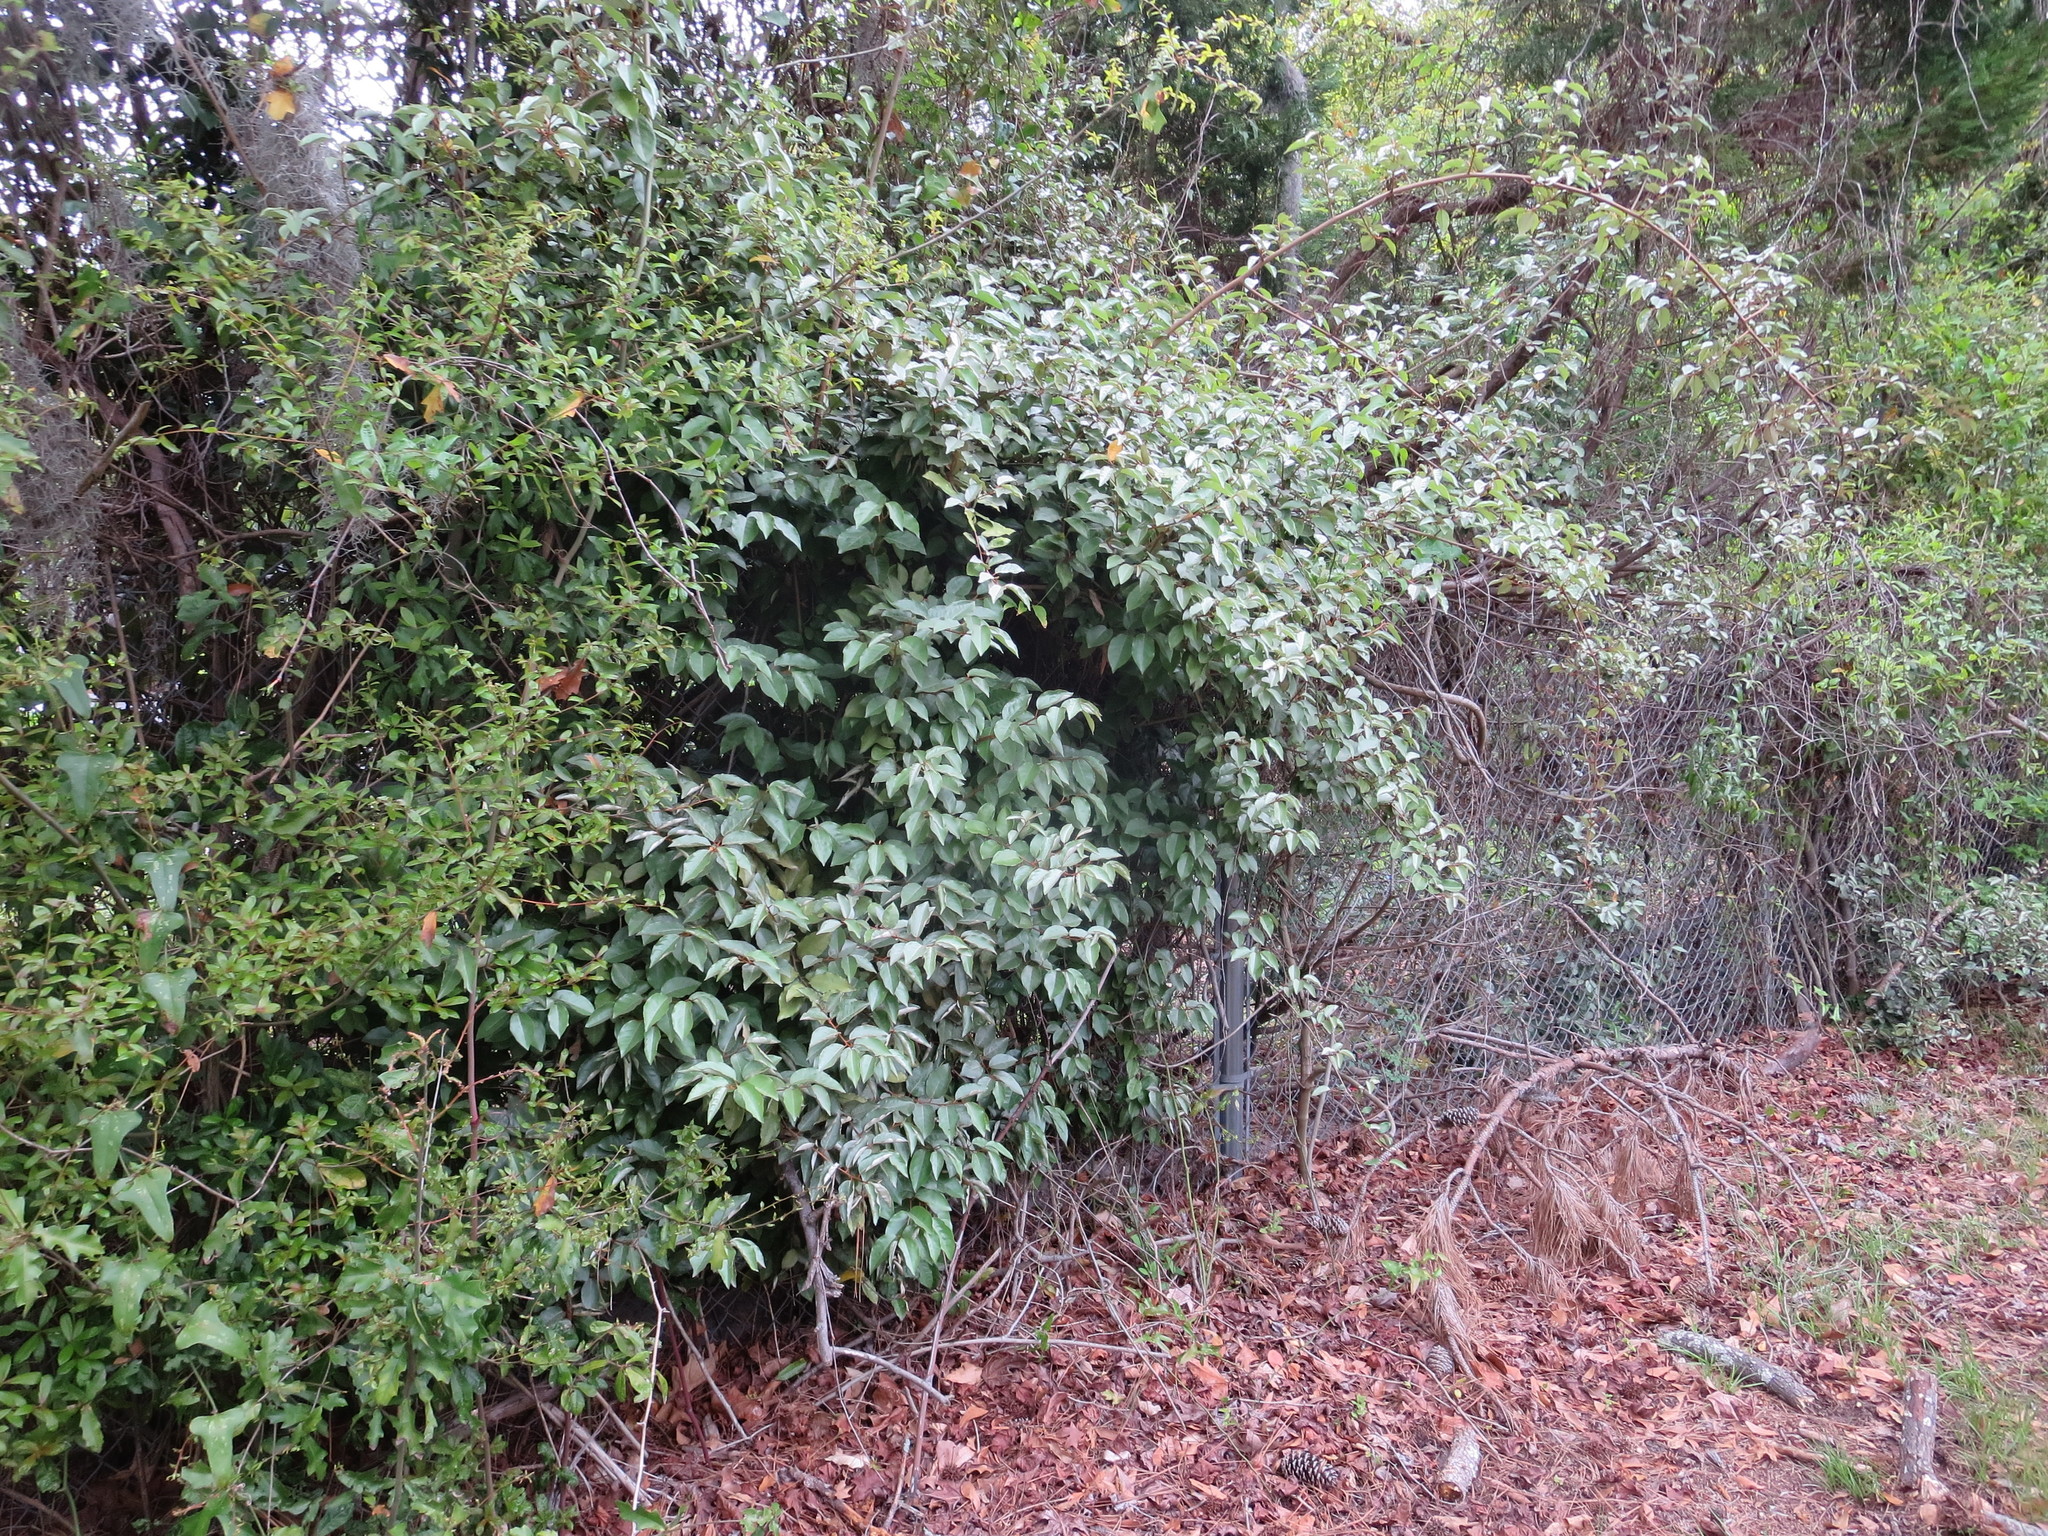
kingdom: Plantae
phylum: Tracheophyta
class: Magnoliopsida
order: Rosales
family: Elaeagnaceae
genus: Elaeagnus
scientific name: Elaeagnus pungens
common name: Spiny oleaster
